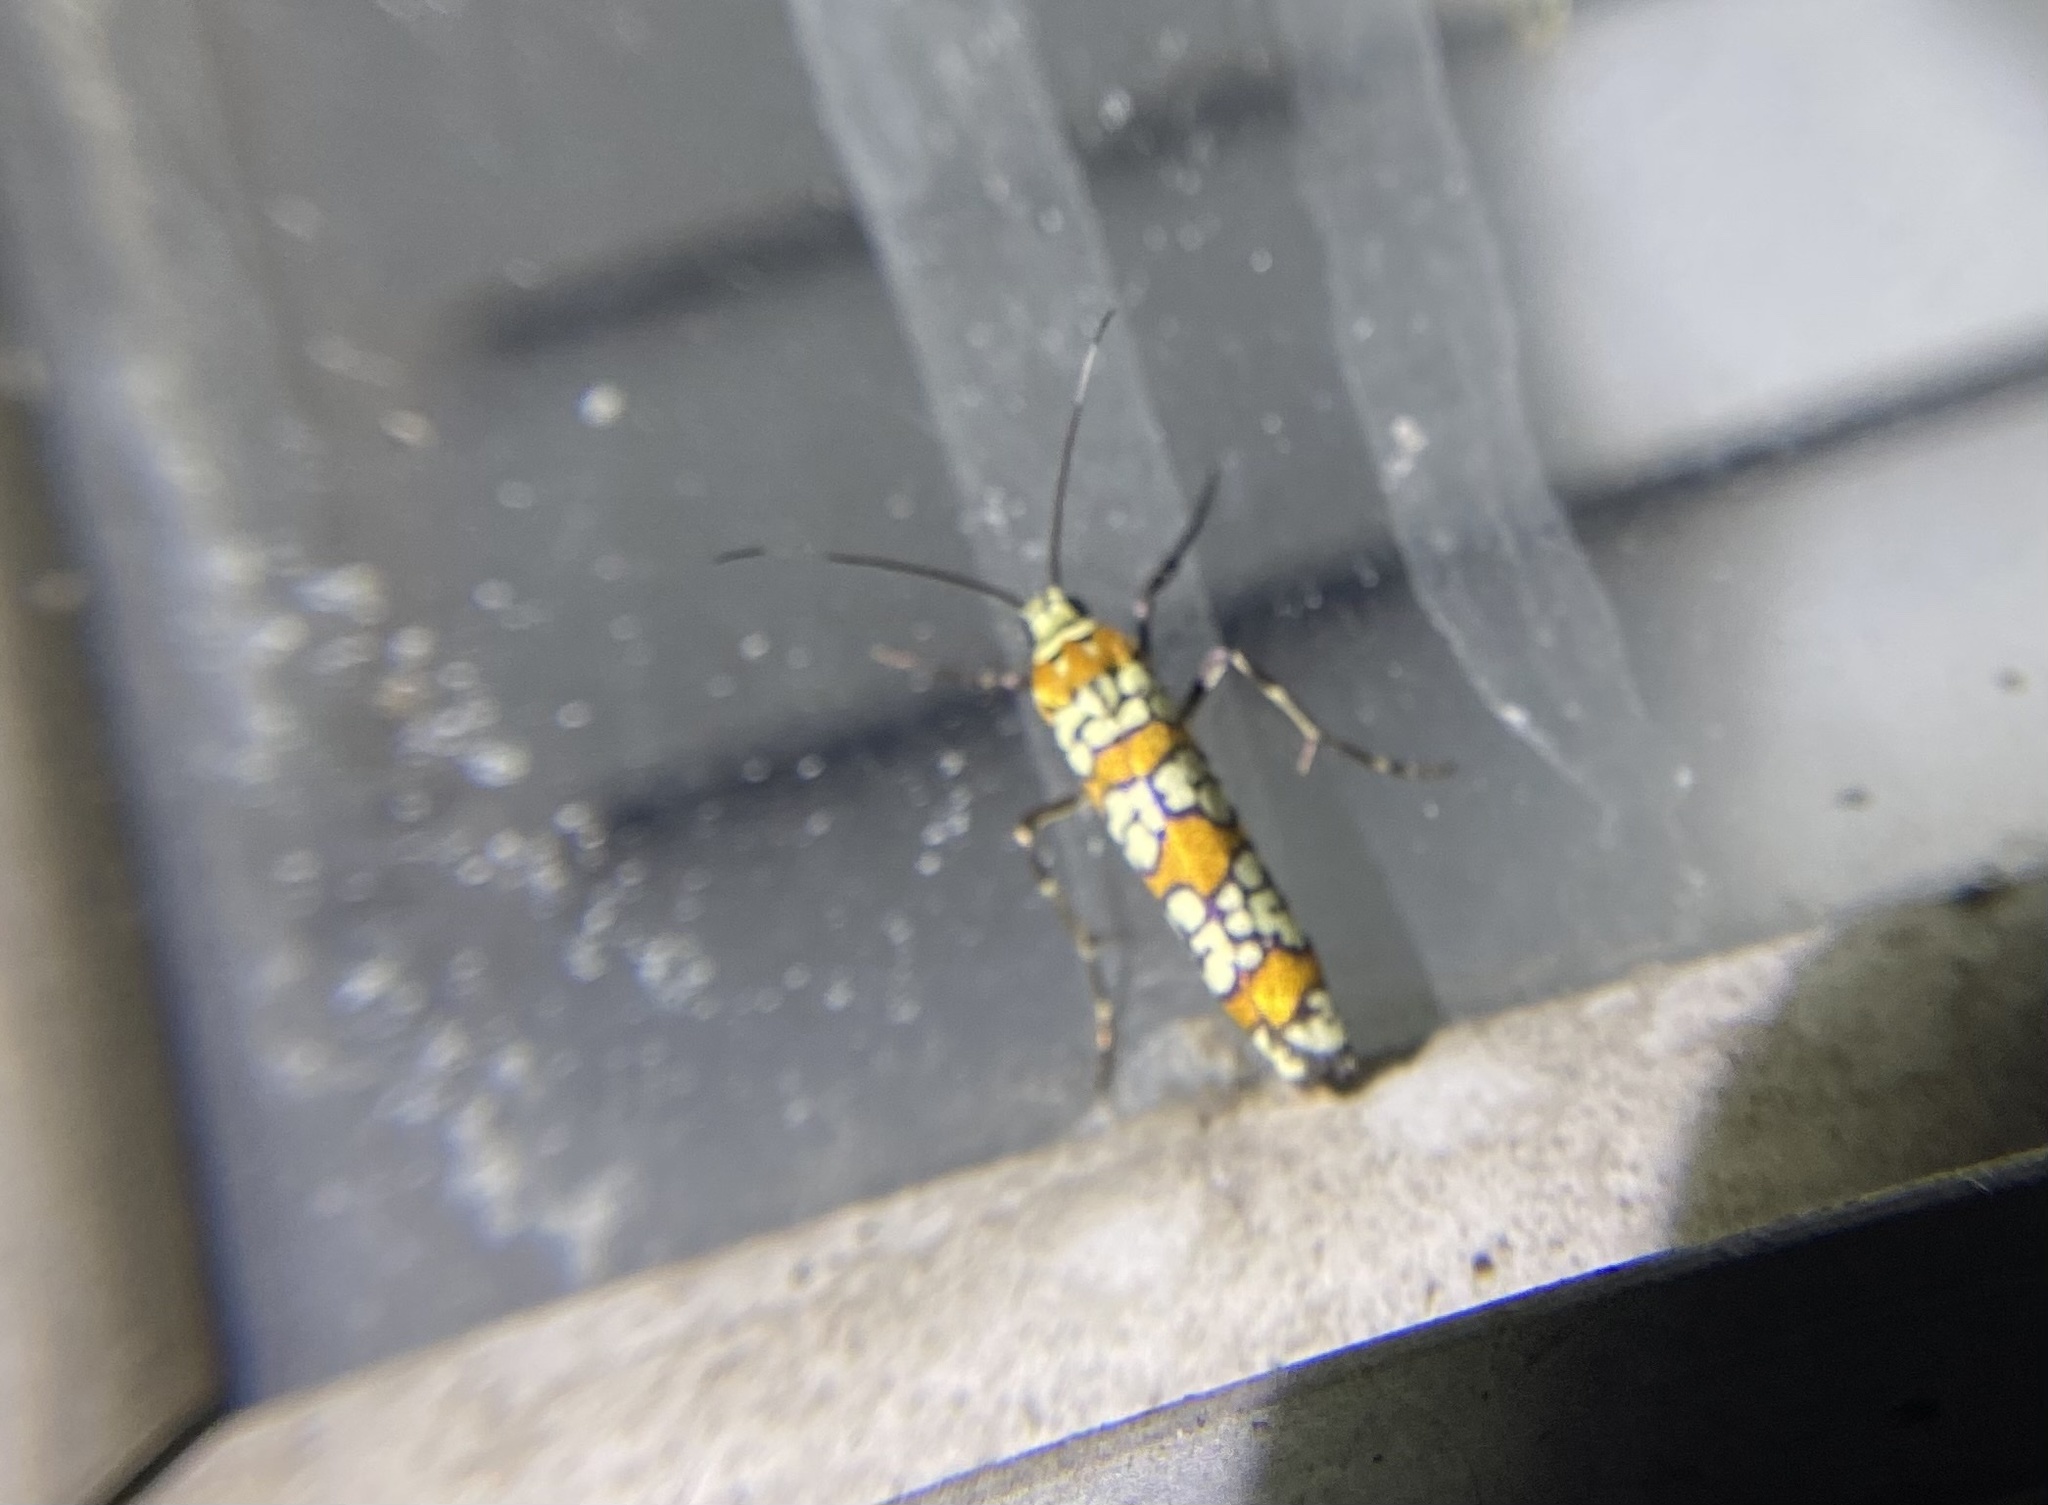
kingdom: Animalia
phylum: Arthropoda
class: Insecta
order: Lepidoptera
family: Attevidae
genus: Atteva
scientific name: Atteva punctella
